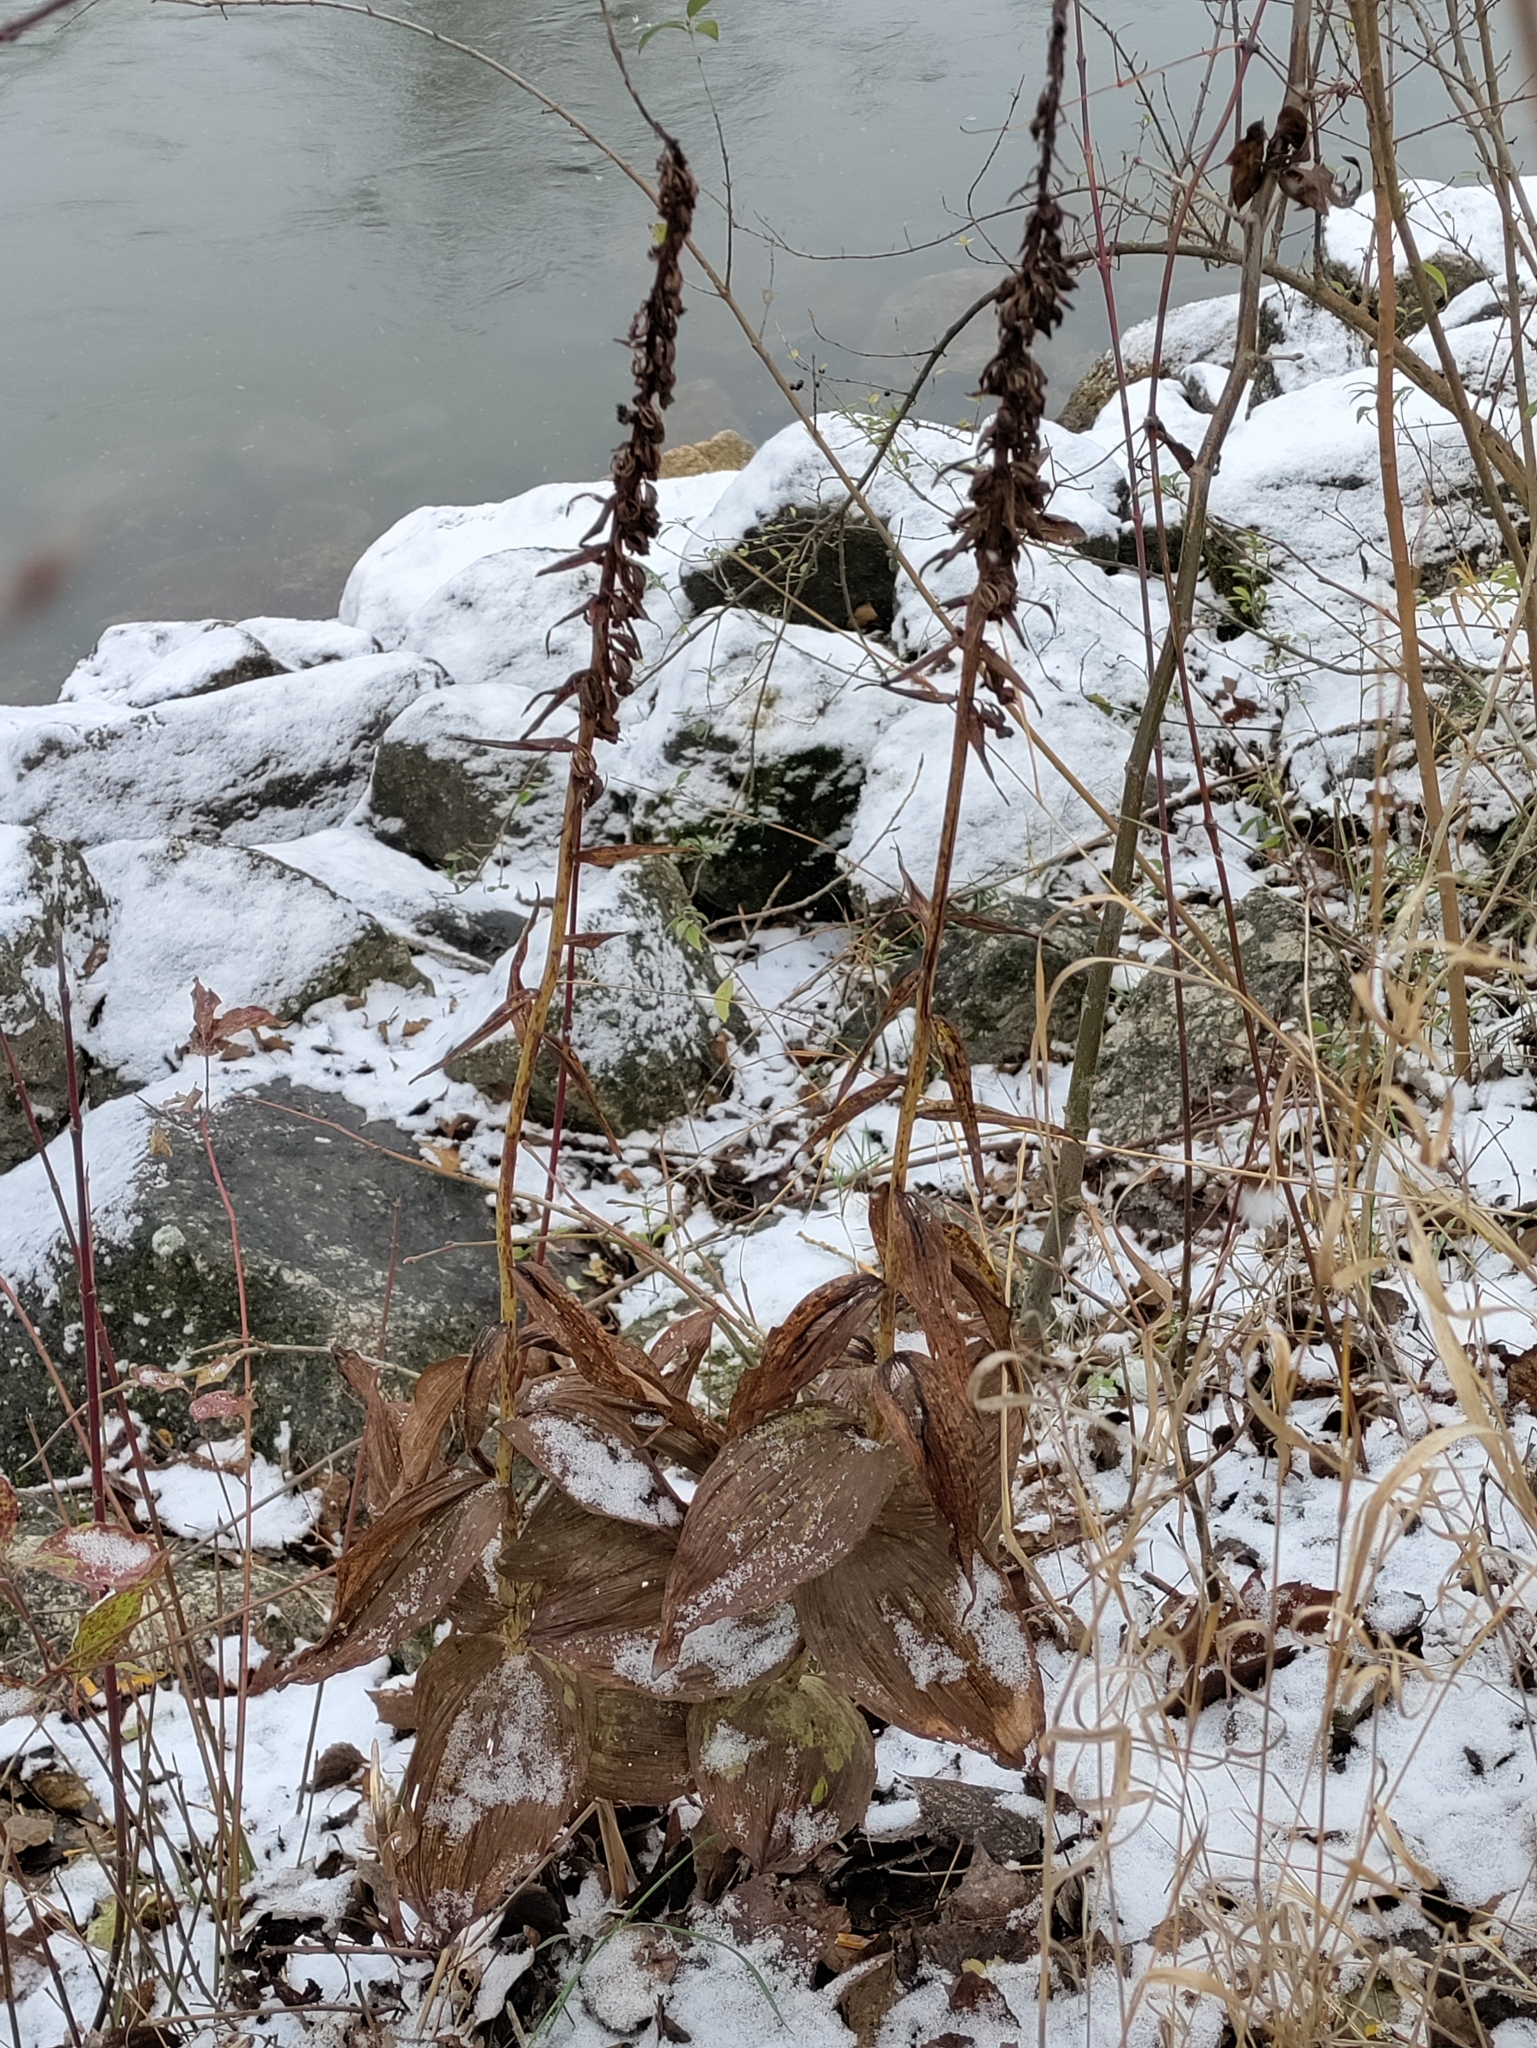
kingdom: Plantae
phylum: Tracheophyta
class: Liliopsida
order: Asparagales
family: Orchidaceae
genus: Epipactis
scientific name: Epipactis helleborine
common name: Broad-leaved helleborine
